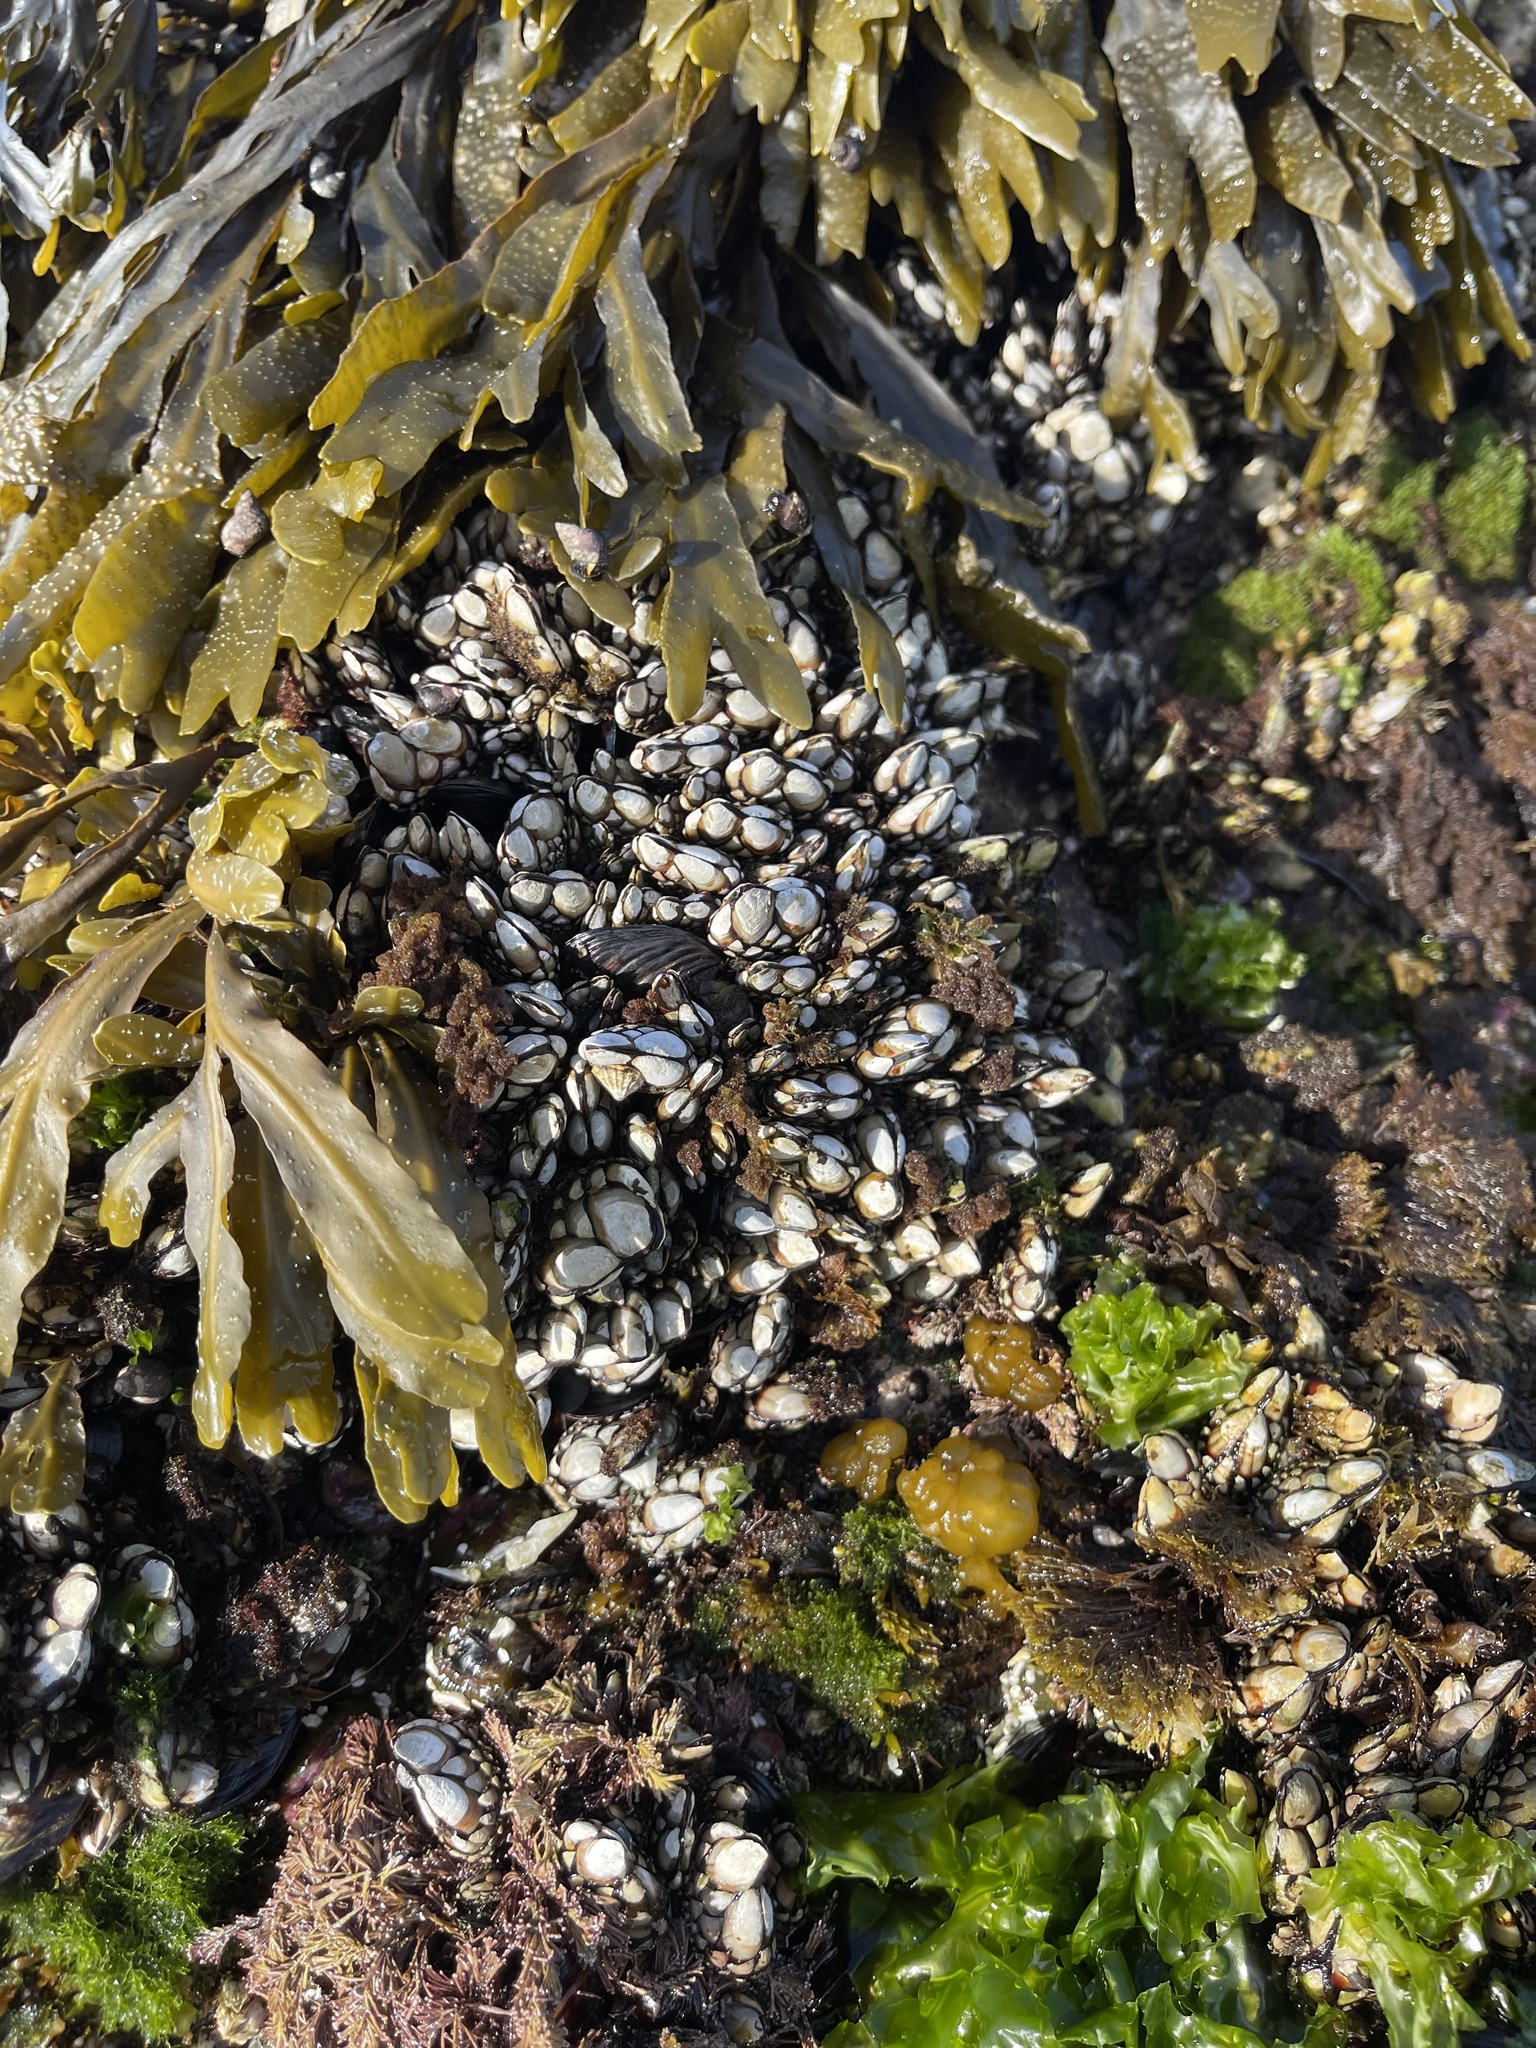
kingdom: Animalia
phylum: Arthropoda
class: Maxillopoda
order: Pedunculata
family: Pollicipedidae
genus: Pollicipes
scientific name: Pollicipes polymerus
